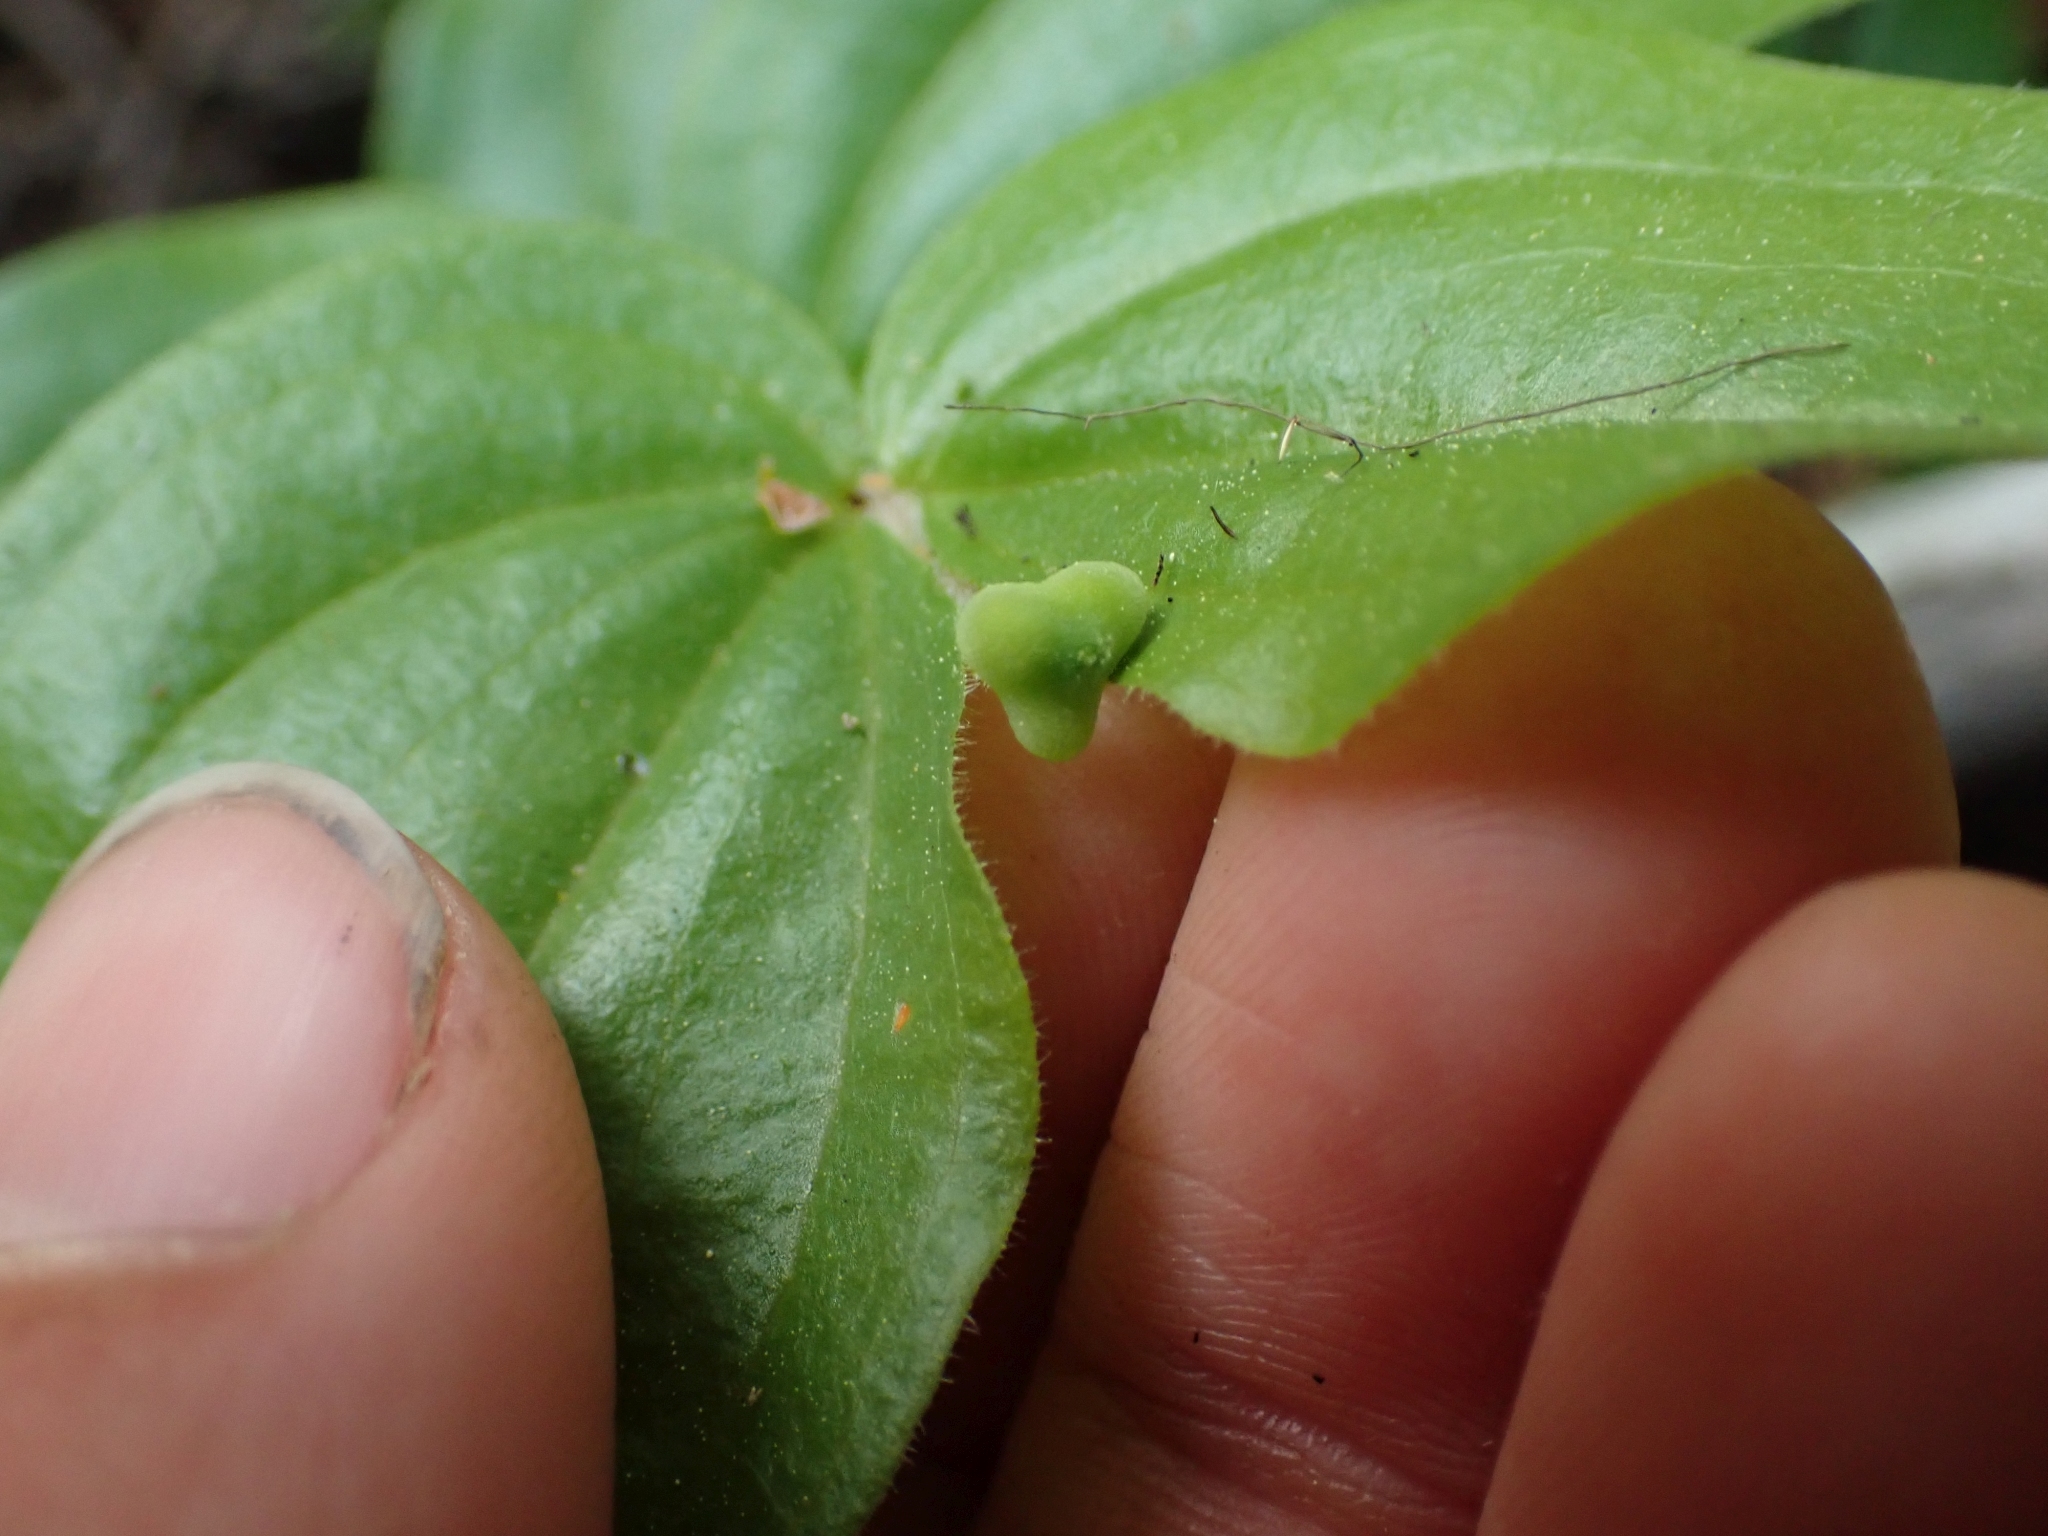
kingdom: Plantae
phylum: Tracheophyta
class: Liliopsida
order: Liliales
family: Liliaceae
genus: Prosartes
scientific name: Prosartes trachycarpa
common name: Rough-fruit fairy-bells
